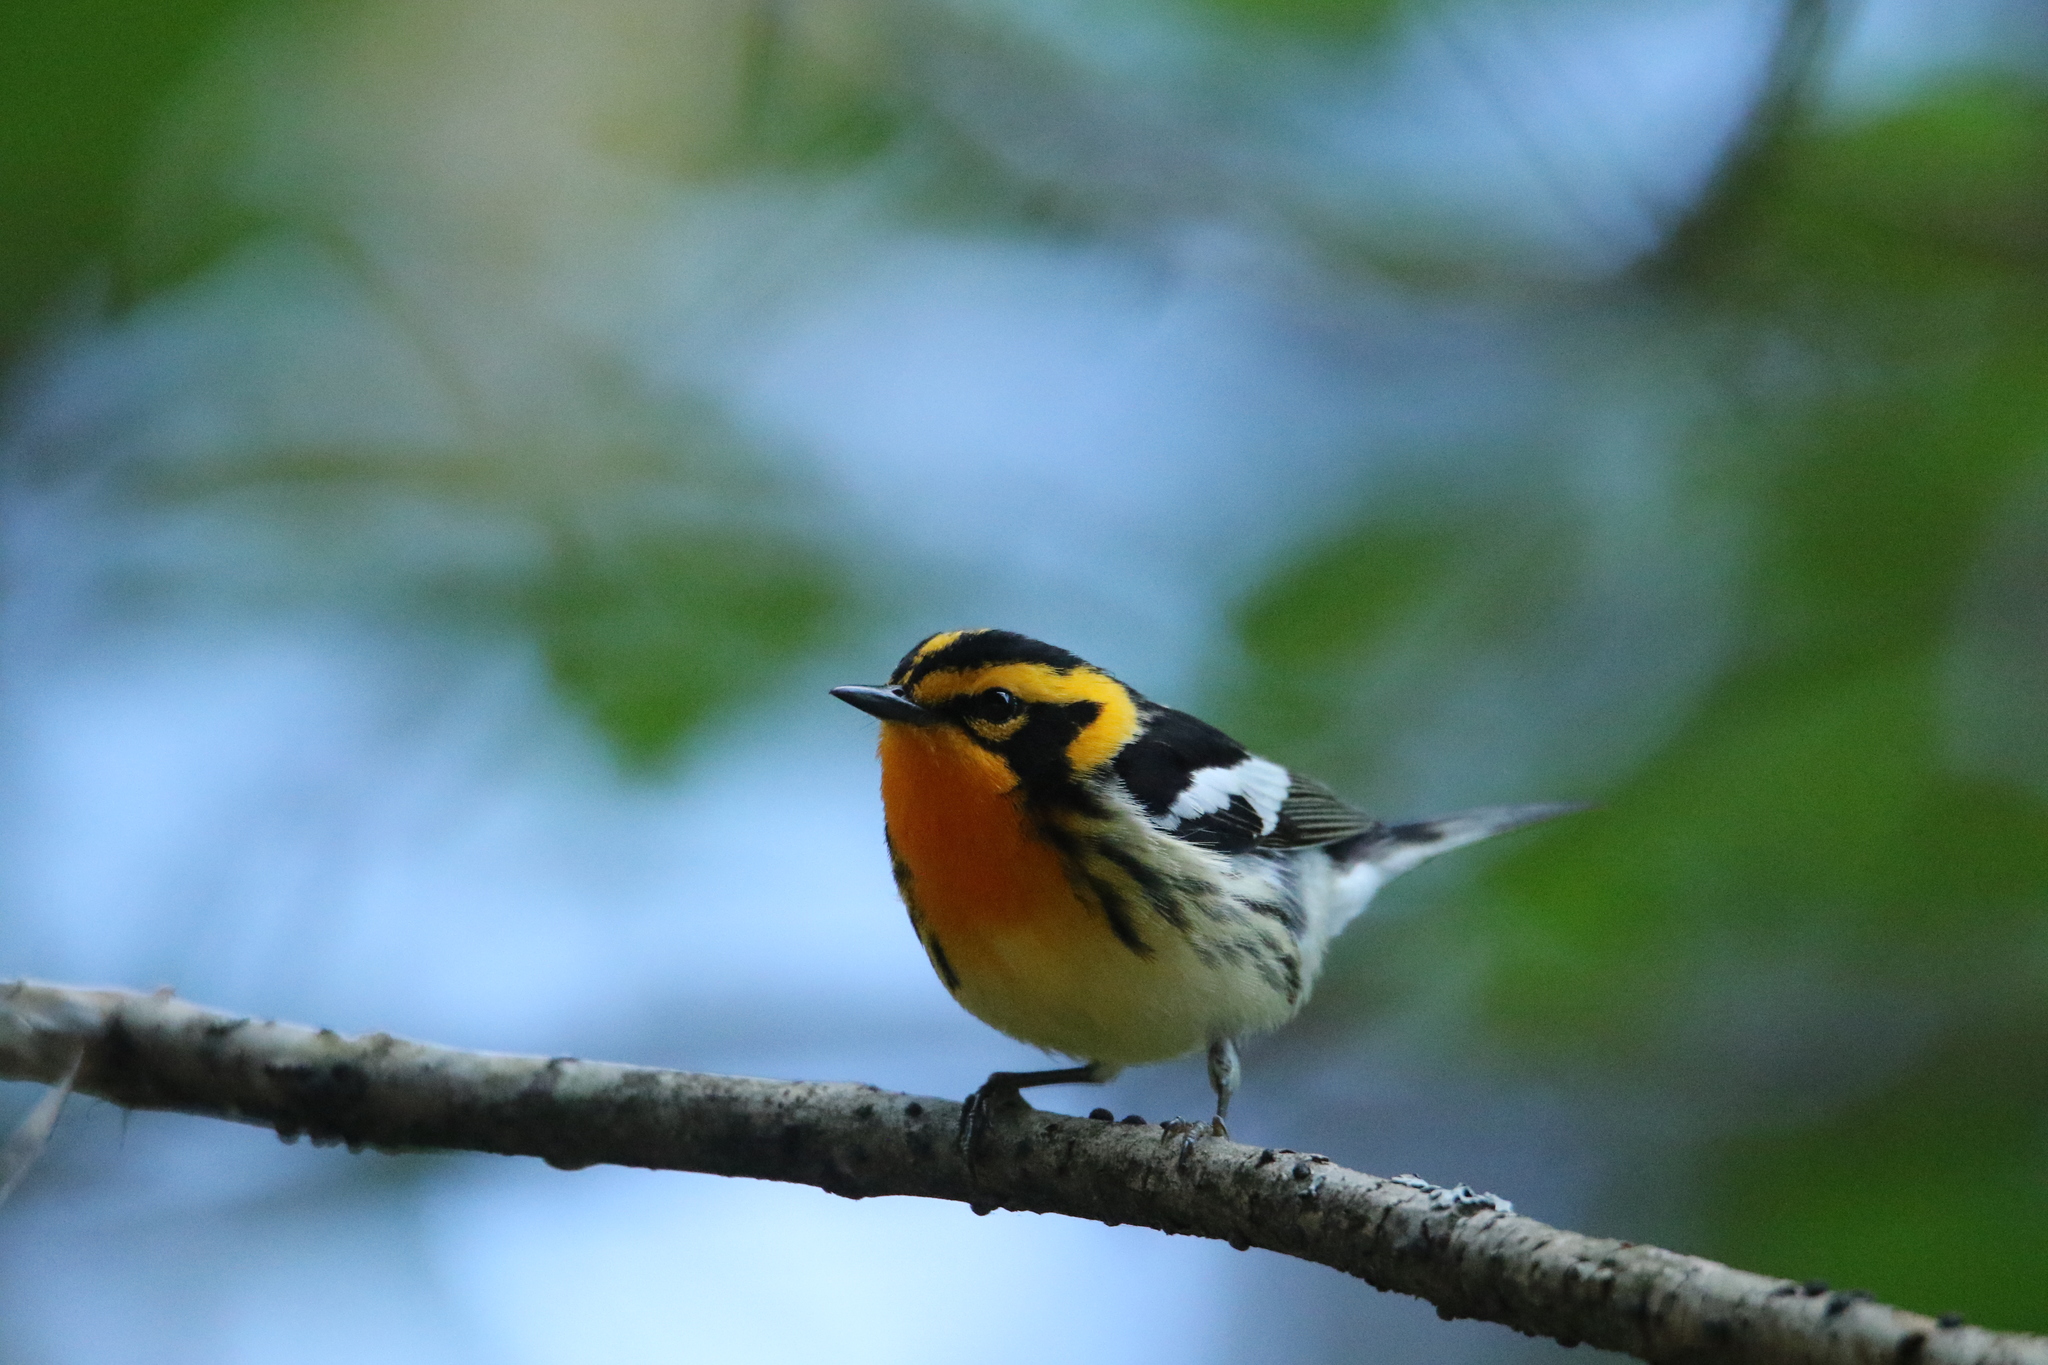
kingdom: Animalia
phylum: Chordata
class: Aves
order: Passeriformes
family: Parulidae
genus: Setophaga
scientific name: Setophaga fusca
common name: Blackburnian warbler
